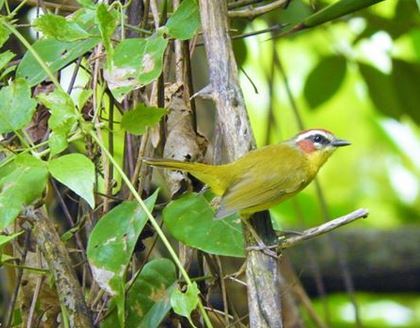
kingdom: Animalia
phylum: Chordata
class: Aves
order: Passeriformes
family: Parulidae
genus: Basileuterus
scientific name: Basileuterus rufifrons
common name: Rufous-capped warbler
